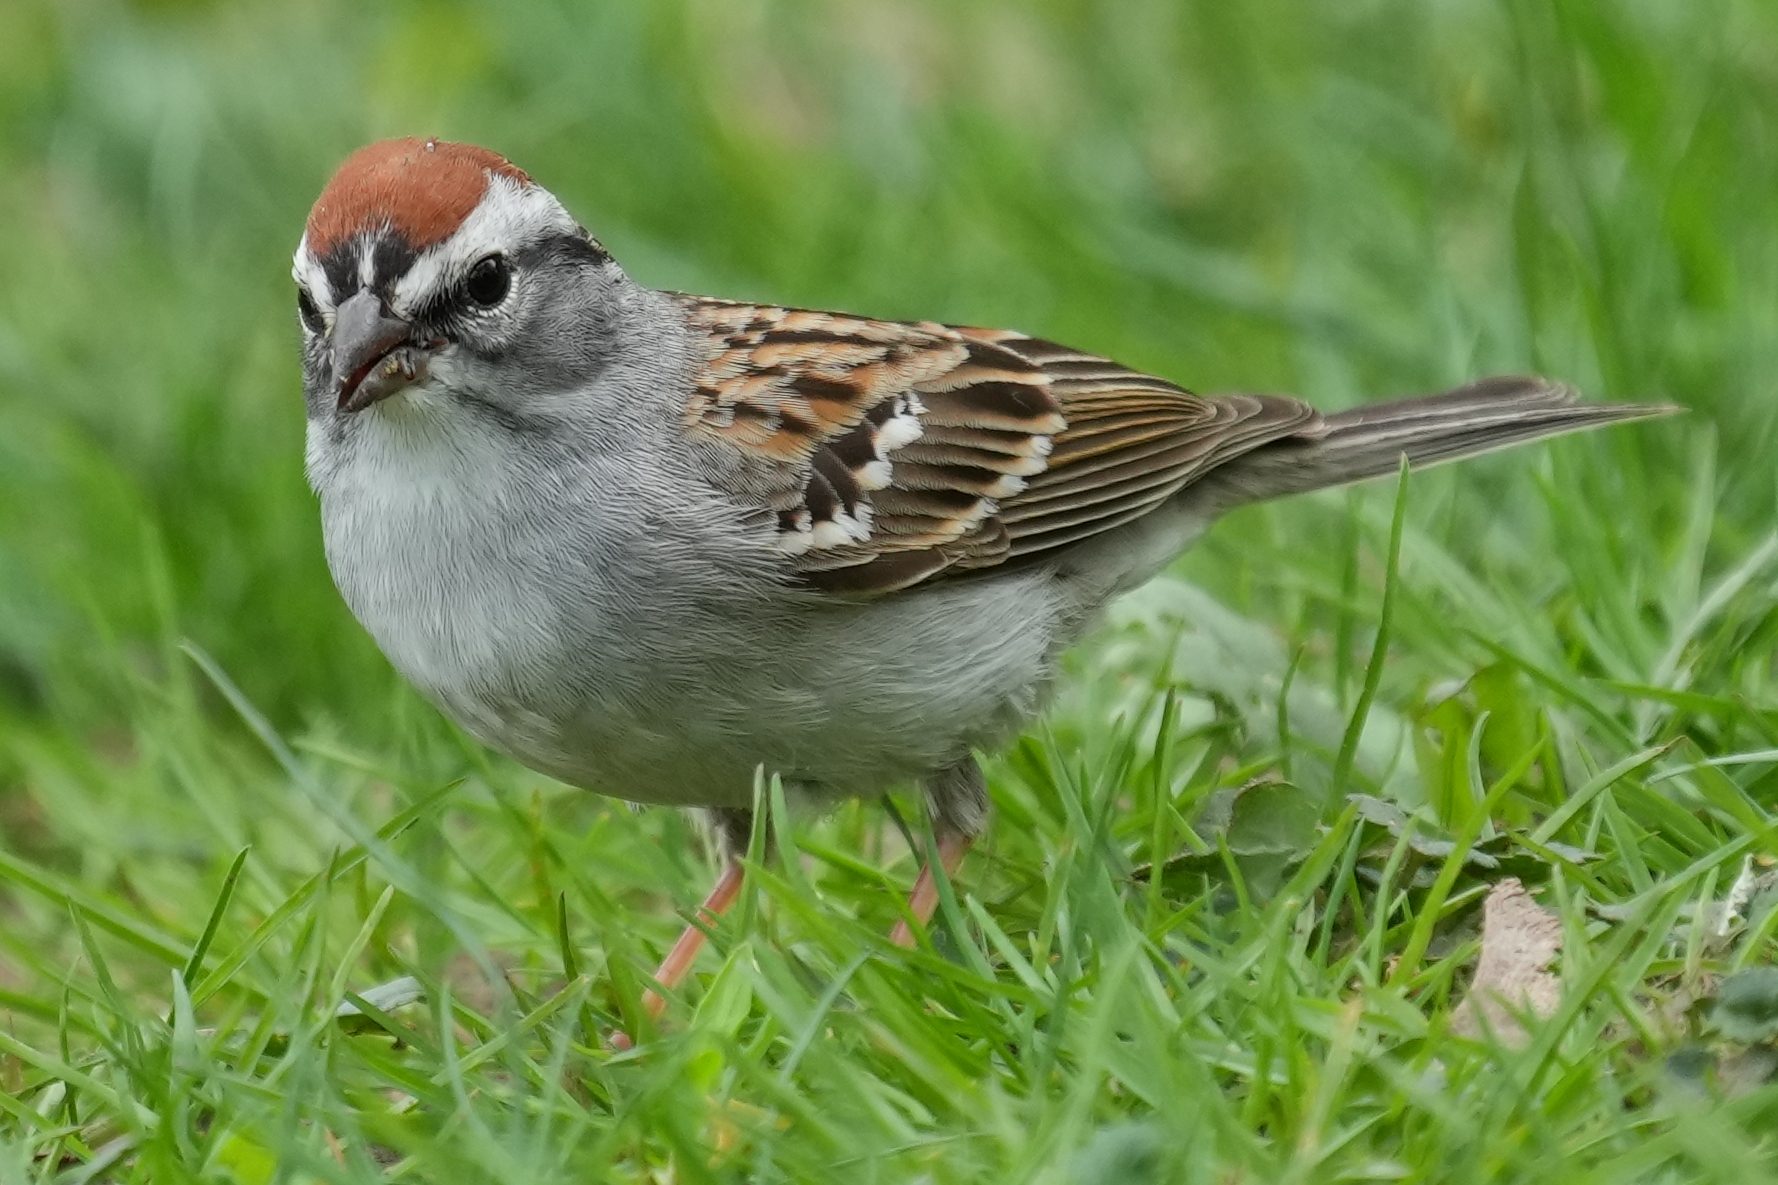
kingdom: Animalia
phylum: Chordata
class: Aves
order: Passeriformes
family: Passerellidae
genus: Spizella
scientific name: Spizella passerina
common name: Chipping sparrow
